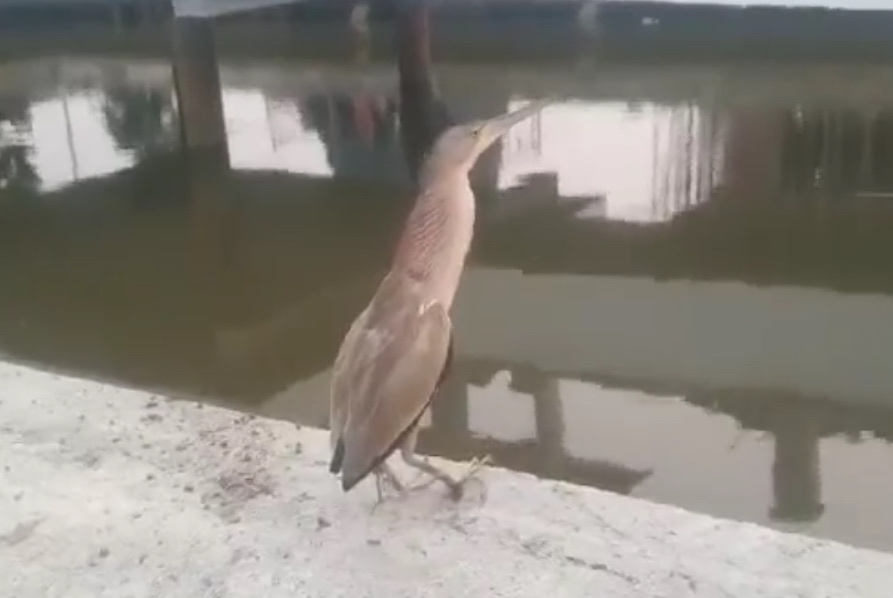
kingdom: Animalia
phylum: Chordata
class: Aves
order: Pelecaniformes
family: Ardeidae
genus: Ixobrychus
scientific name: Ixobrychus sinensis
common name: Yellow bittern
